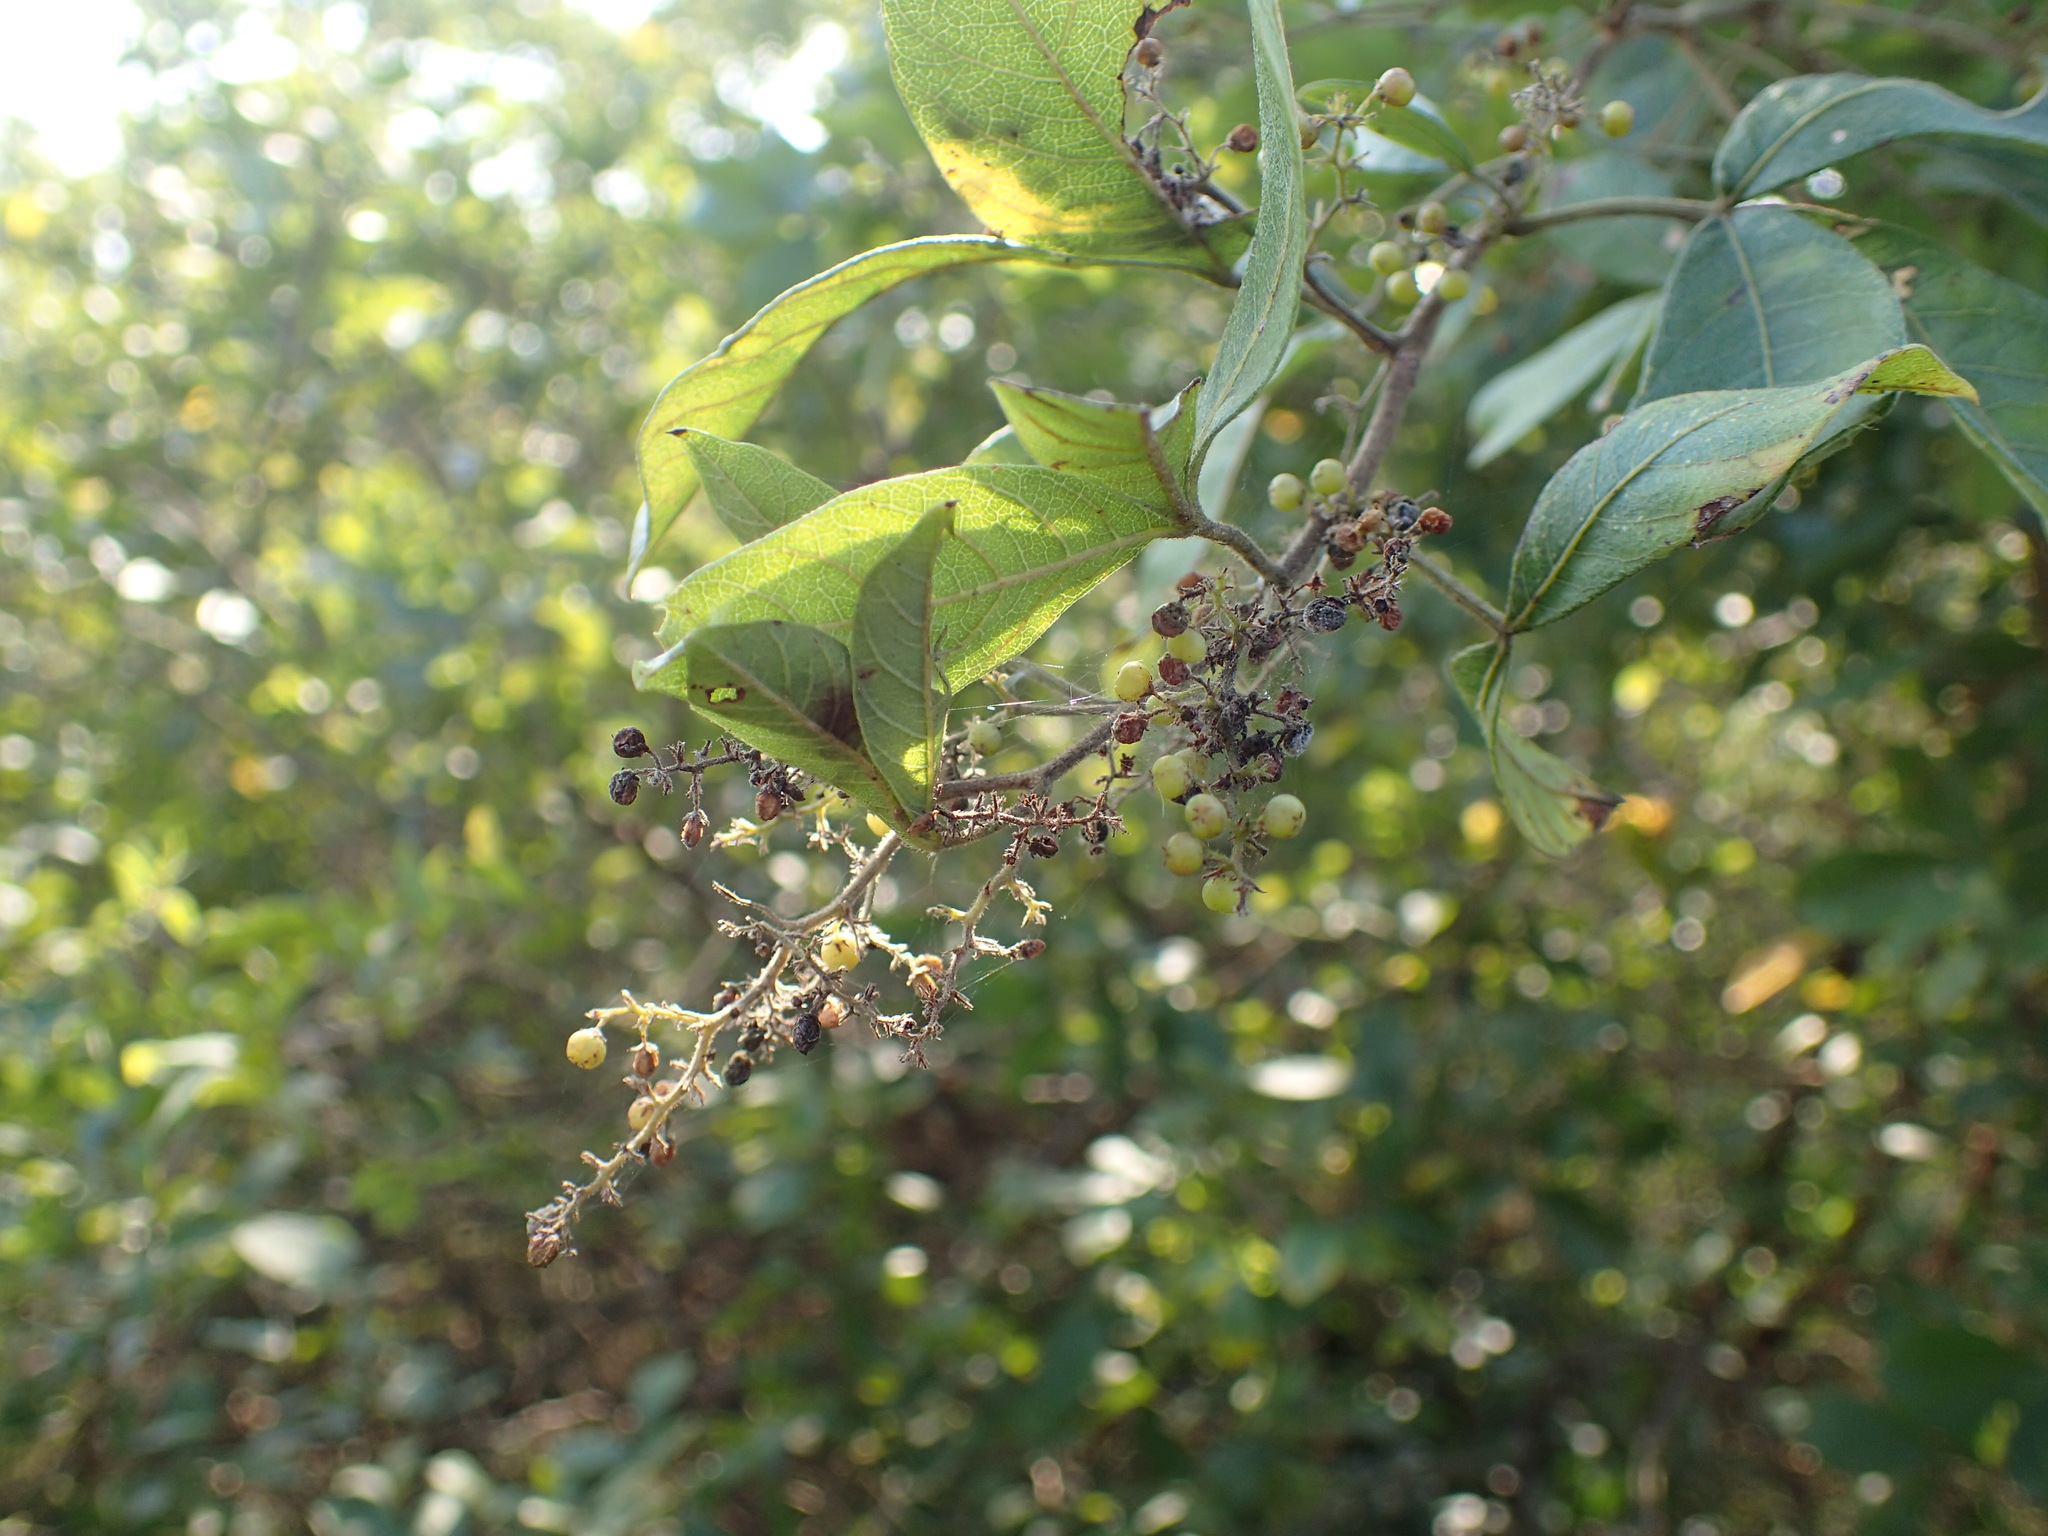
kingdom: Plantae
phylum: Tracheophyta
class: Magnoliopsida
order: Sapindales
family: Anacardiaceae
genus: Searsia
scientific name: Searsia pyroides
